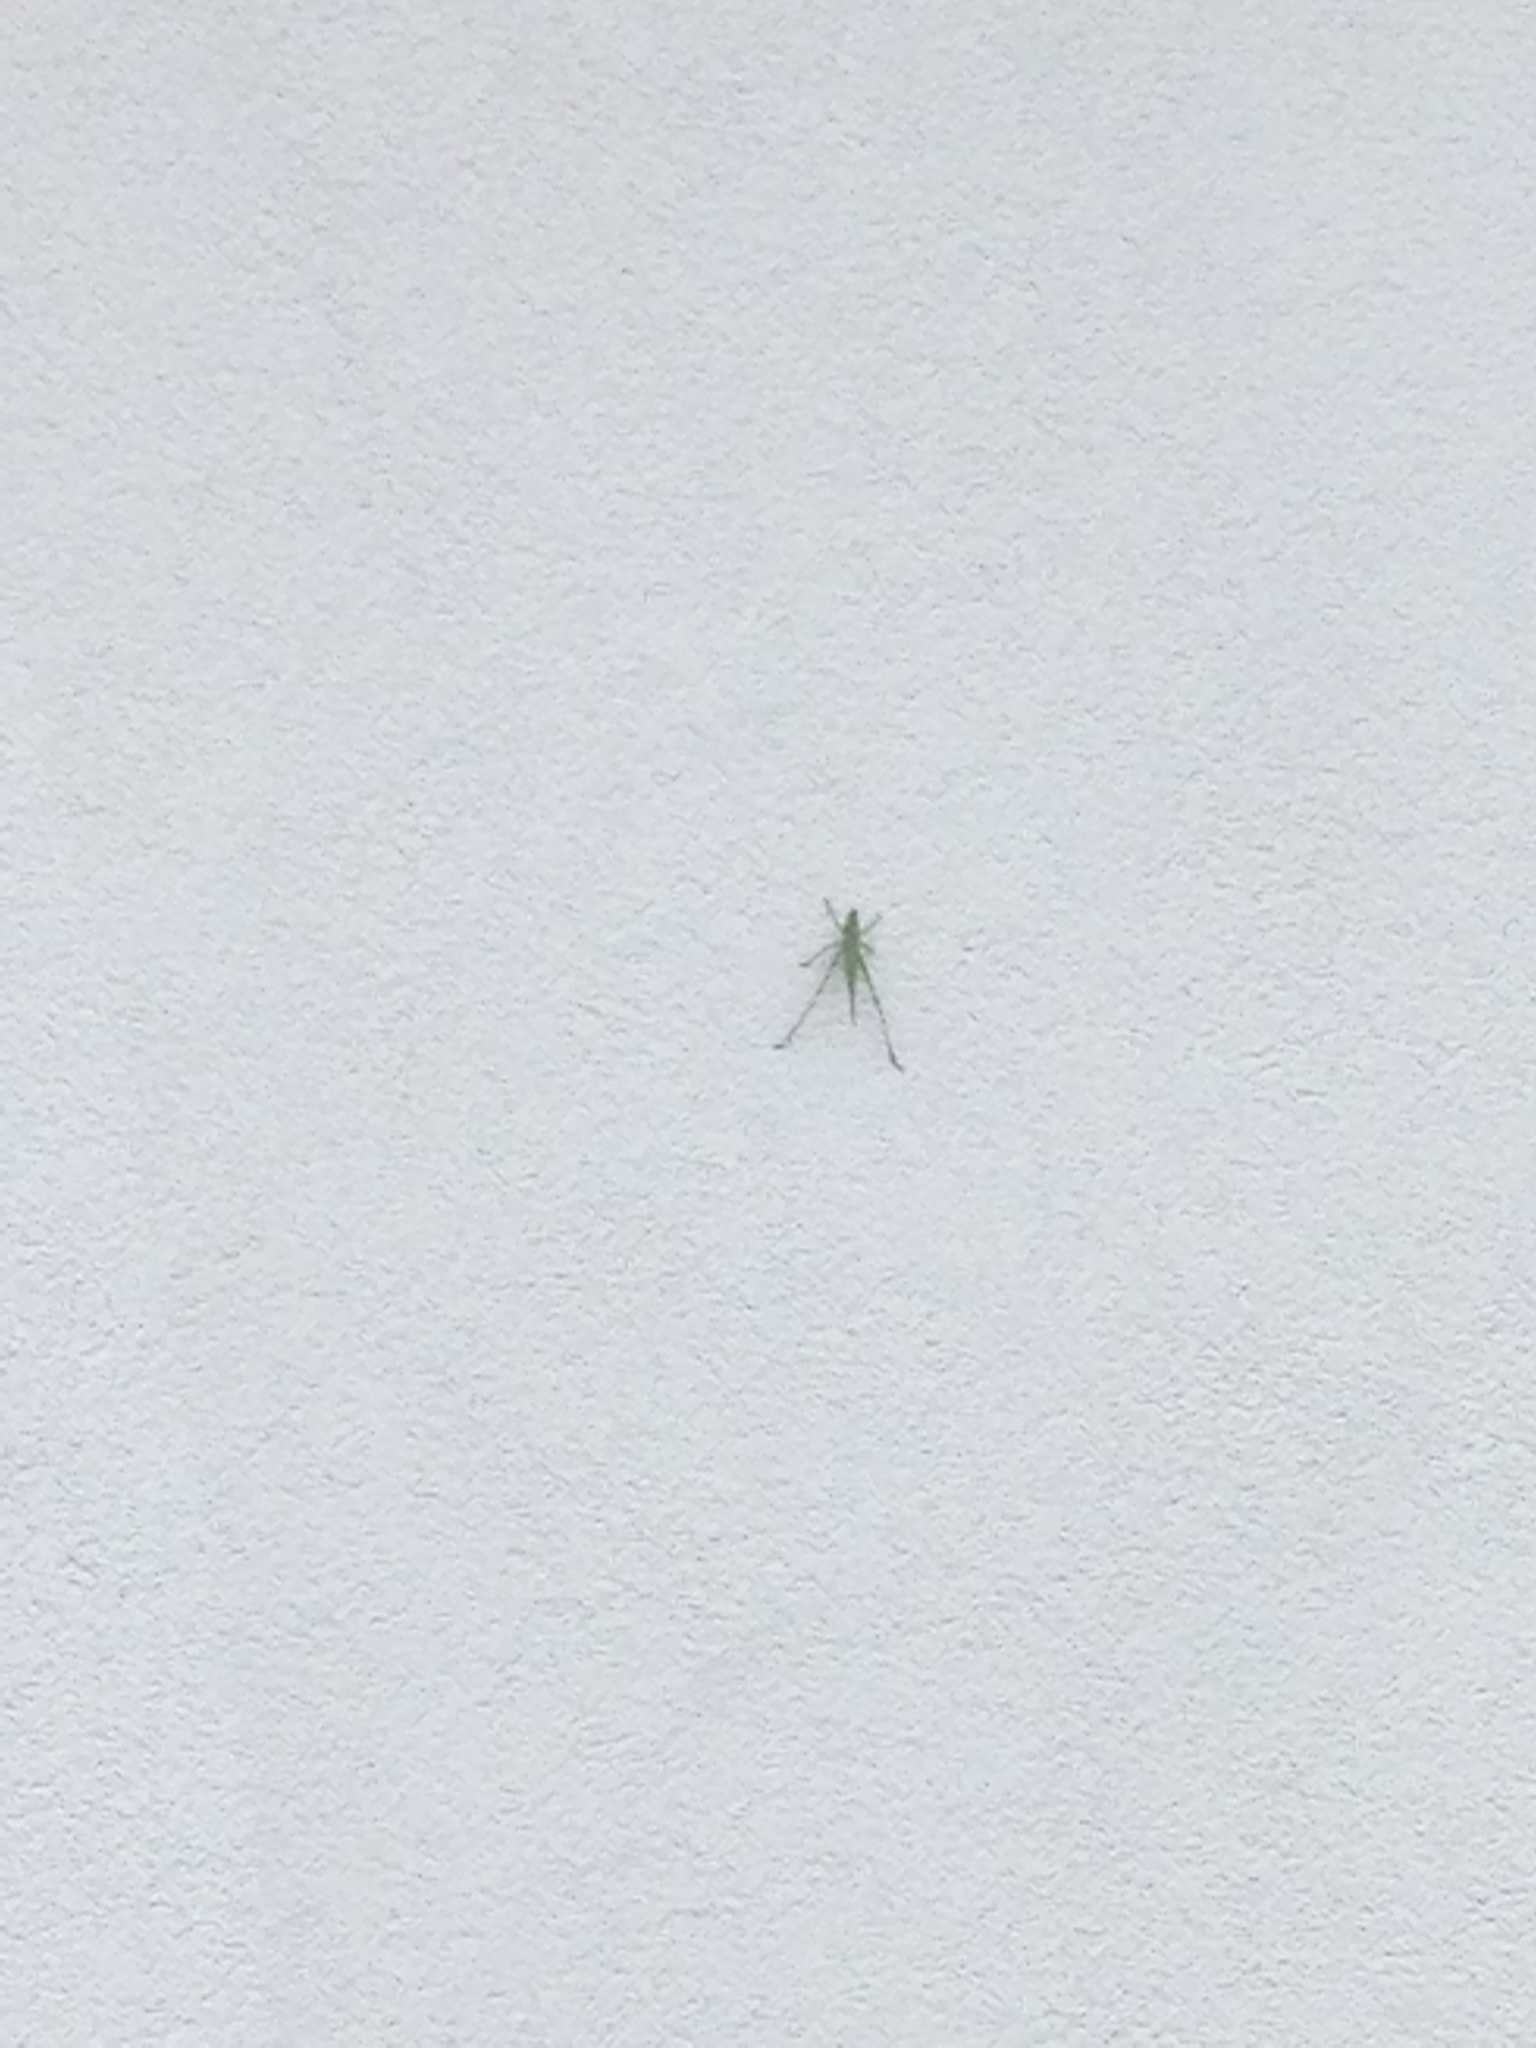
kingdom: Animalia
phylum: Arthropoda
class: Insecta
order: Orthoptera
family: Tettigoniidae
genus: Neoconocephalus
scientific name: Neoconocephalus triops
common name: Broad-tipped conehead
